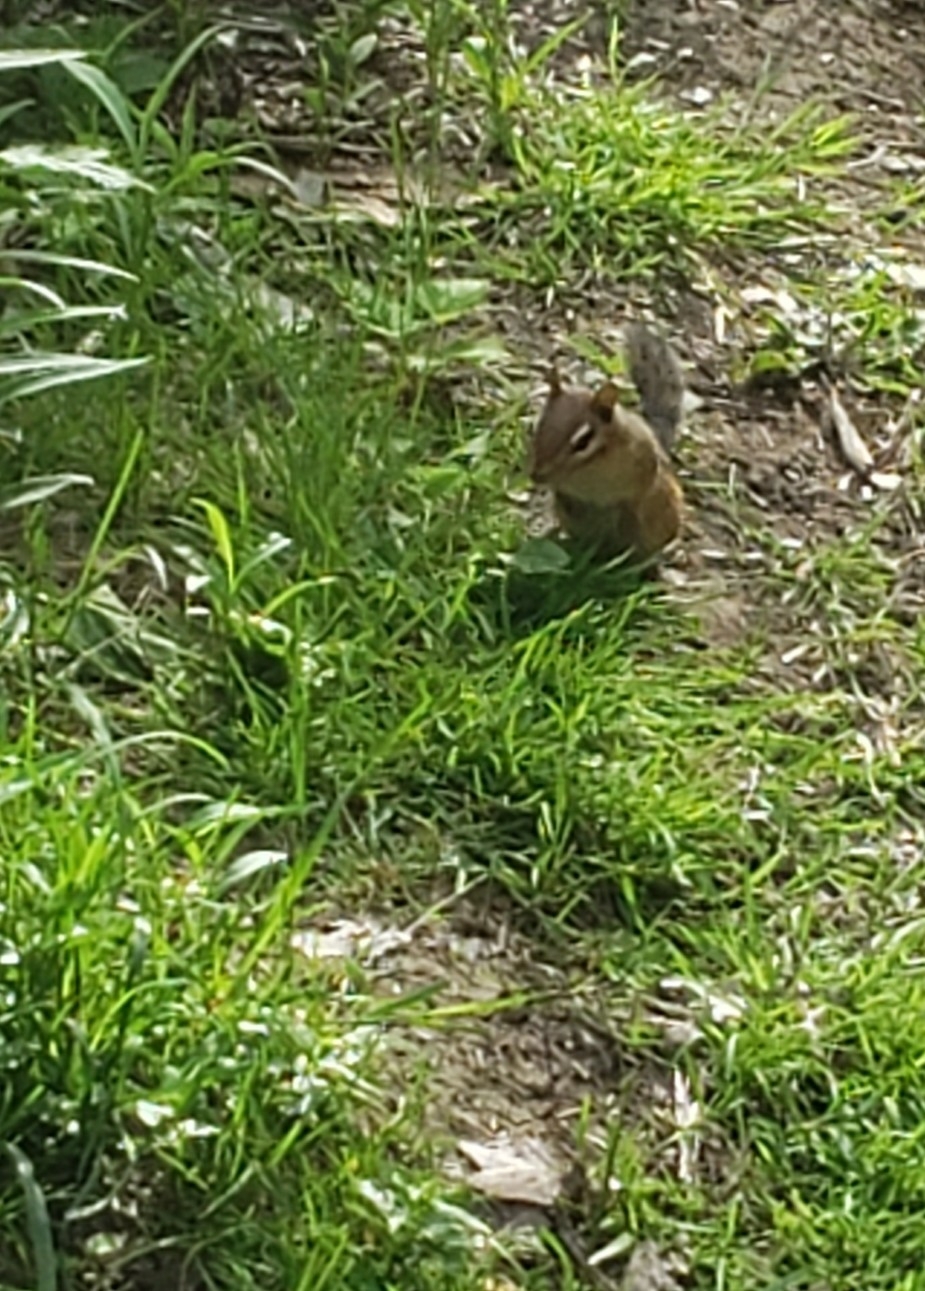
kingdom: Animalia
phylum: Chordata
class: Mammalia
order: Rodentia
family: Sciuridae
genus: Tamias
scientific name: Tamias striatus
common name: Eastern chipmunk
